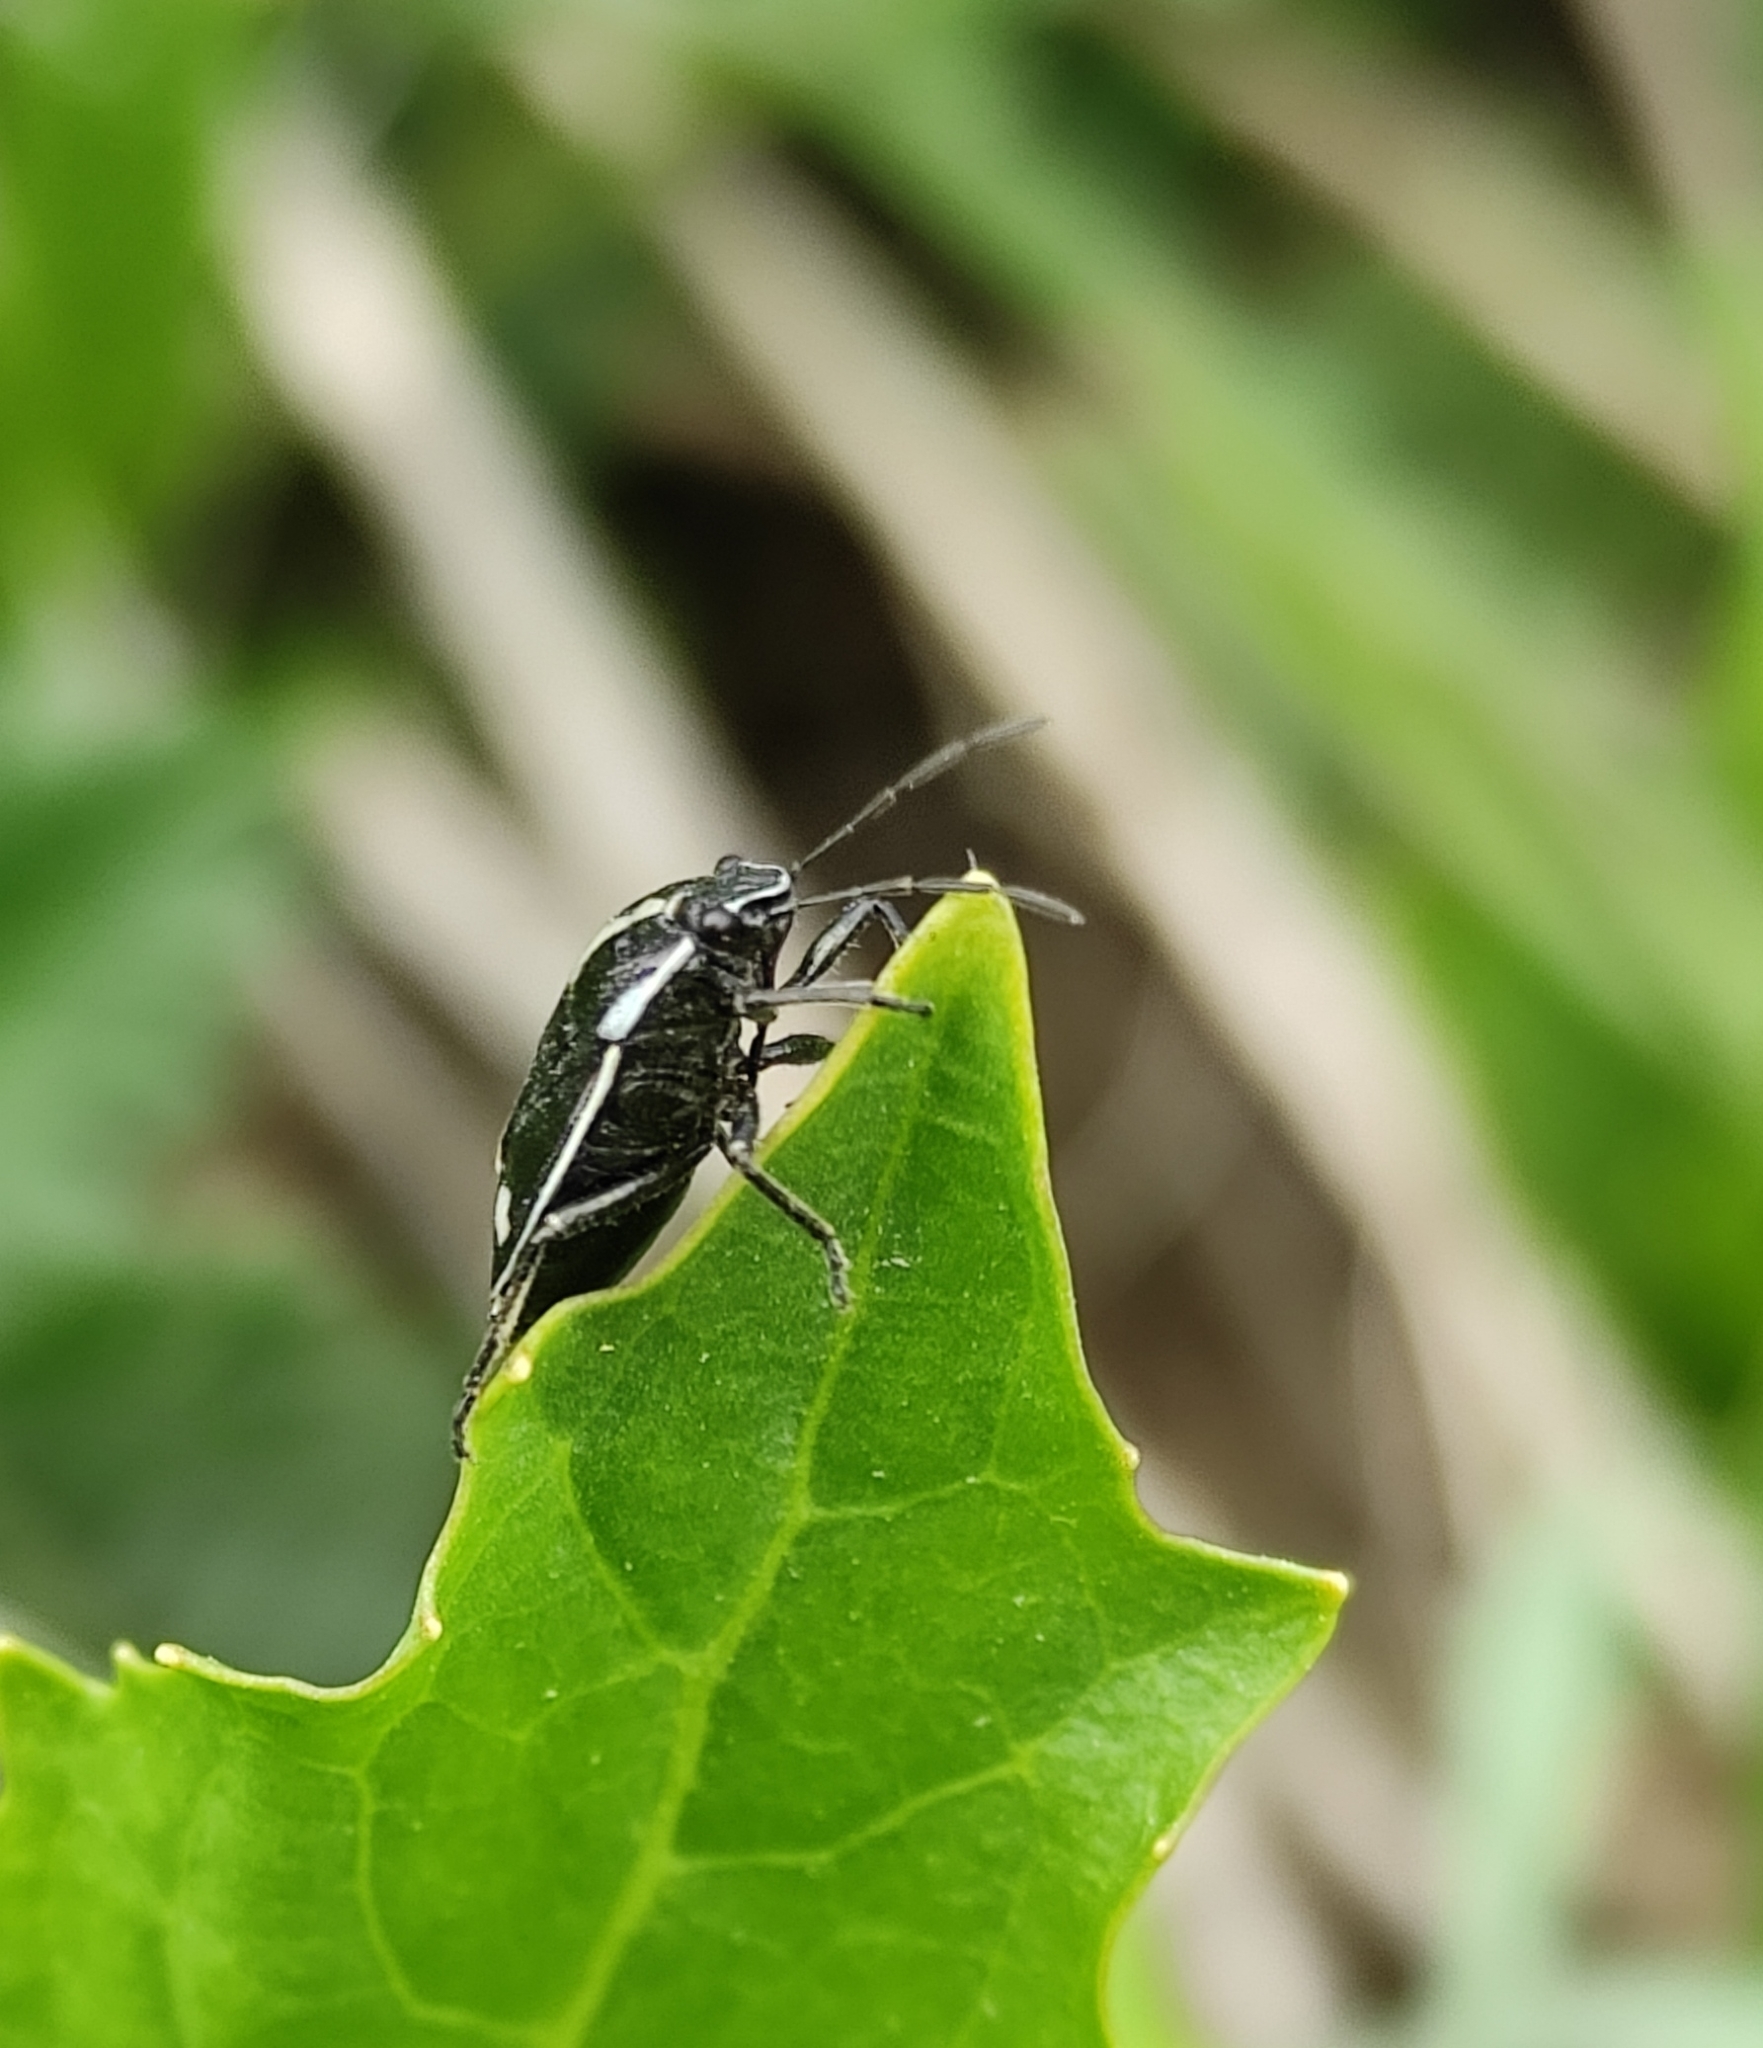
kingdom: Animalia
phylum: Arthropoda
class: Insecta
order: Hemiptera
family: Pentatomidae
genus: Eurydema
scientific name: Eurydema oleracea
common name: Cabbage bug
